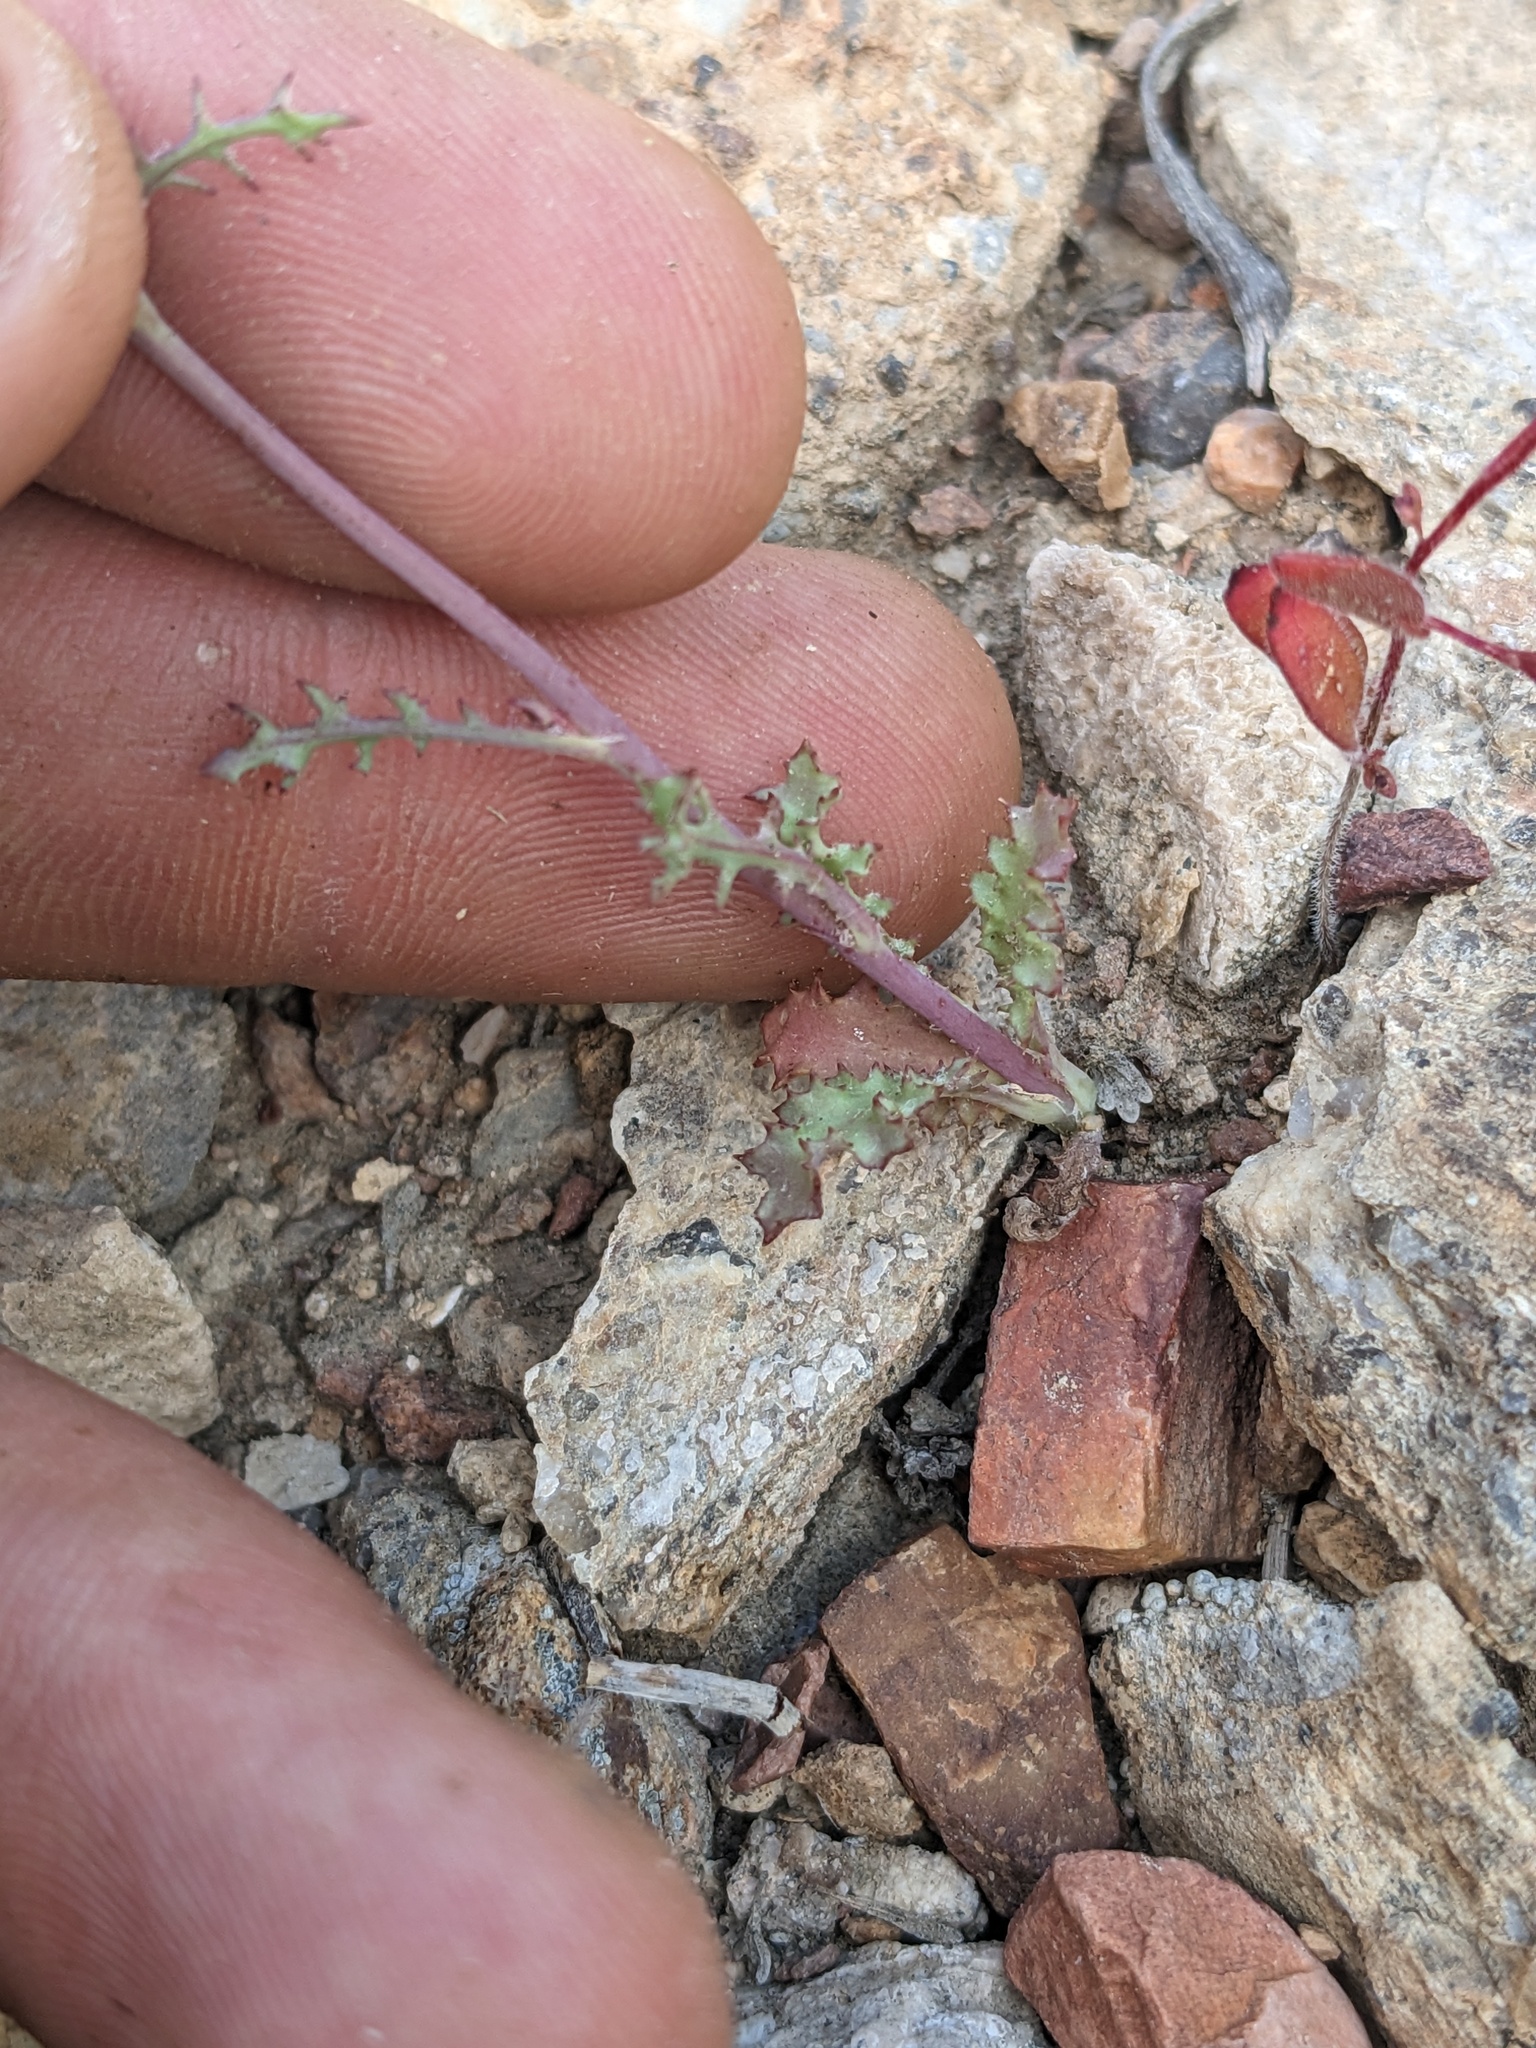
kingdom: Plantae
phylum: Tracheophyta
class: Magnoliopsida
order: Asterales
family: Asteraceae
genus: Malacothrix
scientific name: Malacothrix torreyi
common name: Torrey's desert-dandelion
